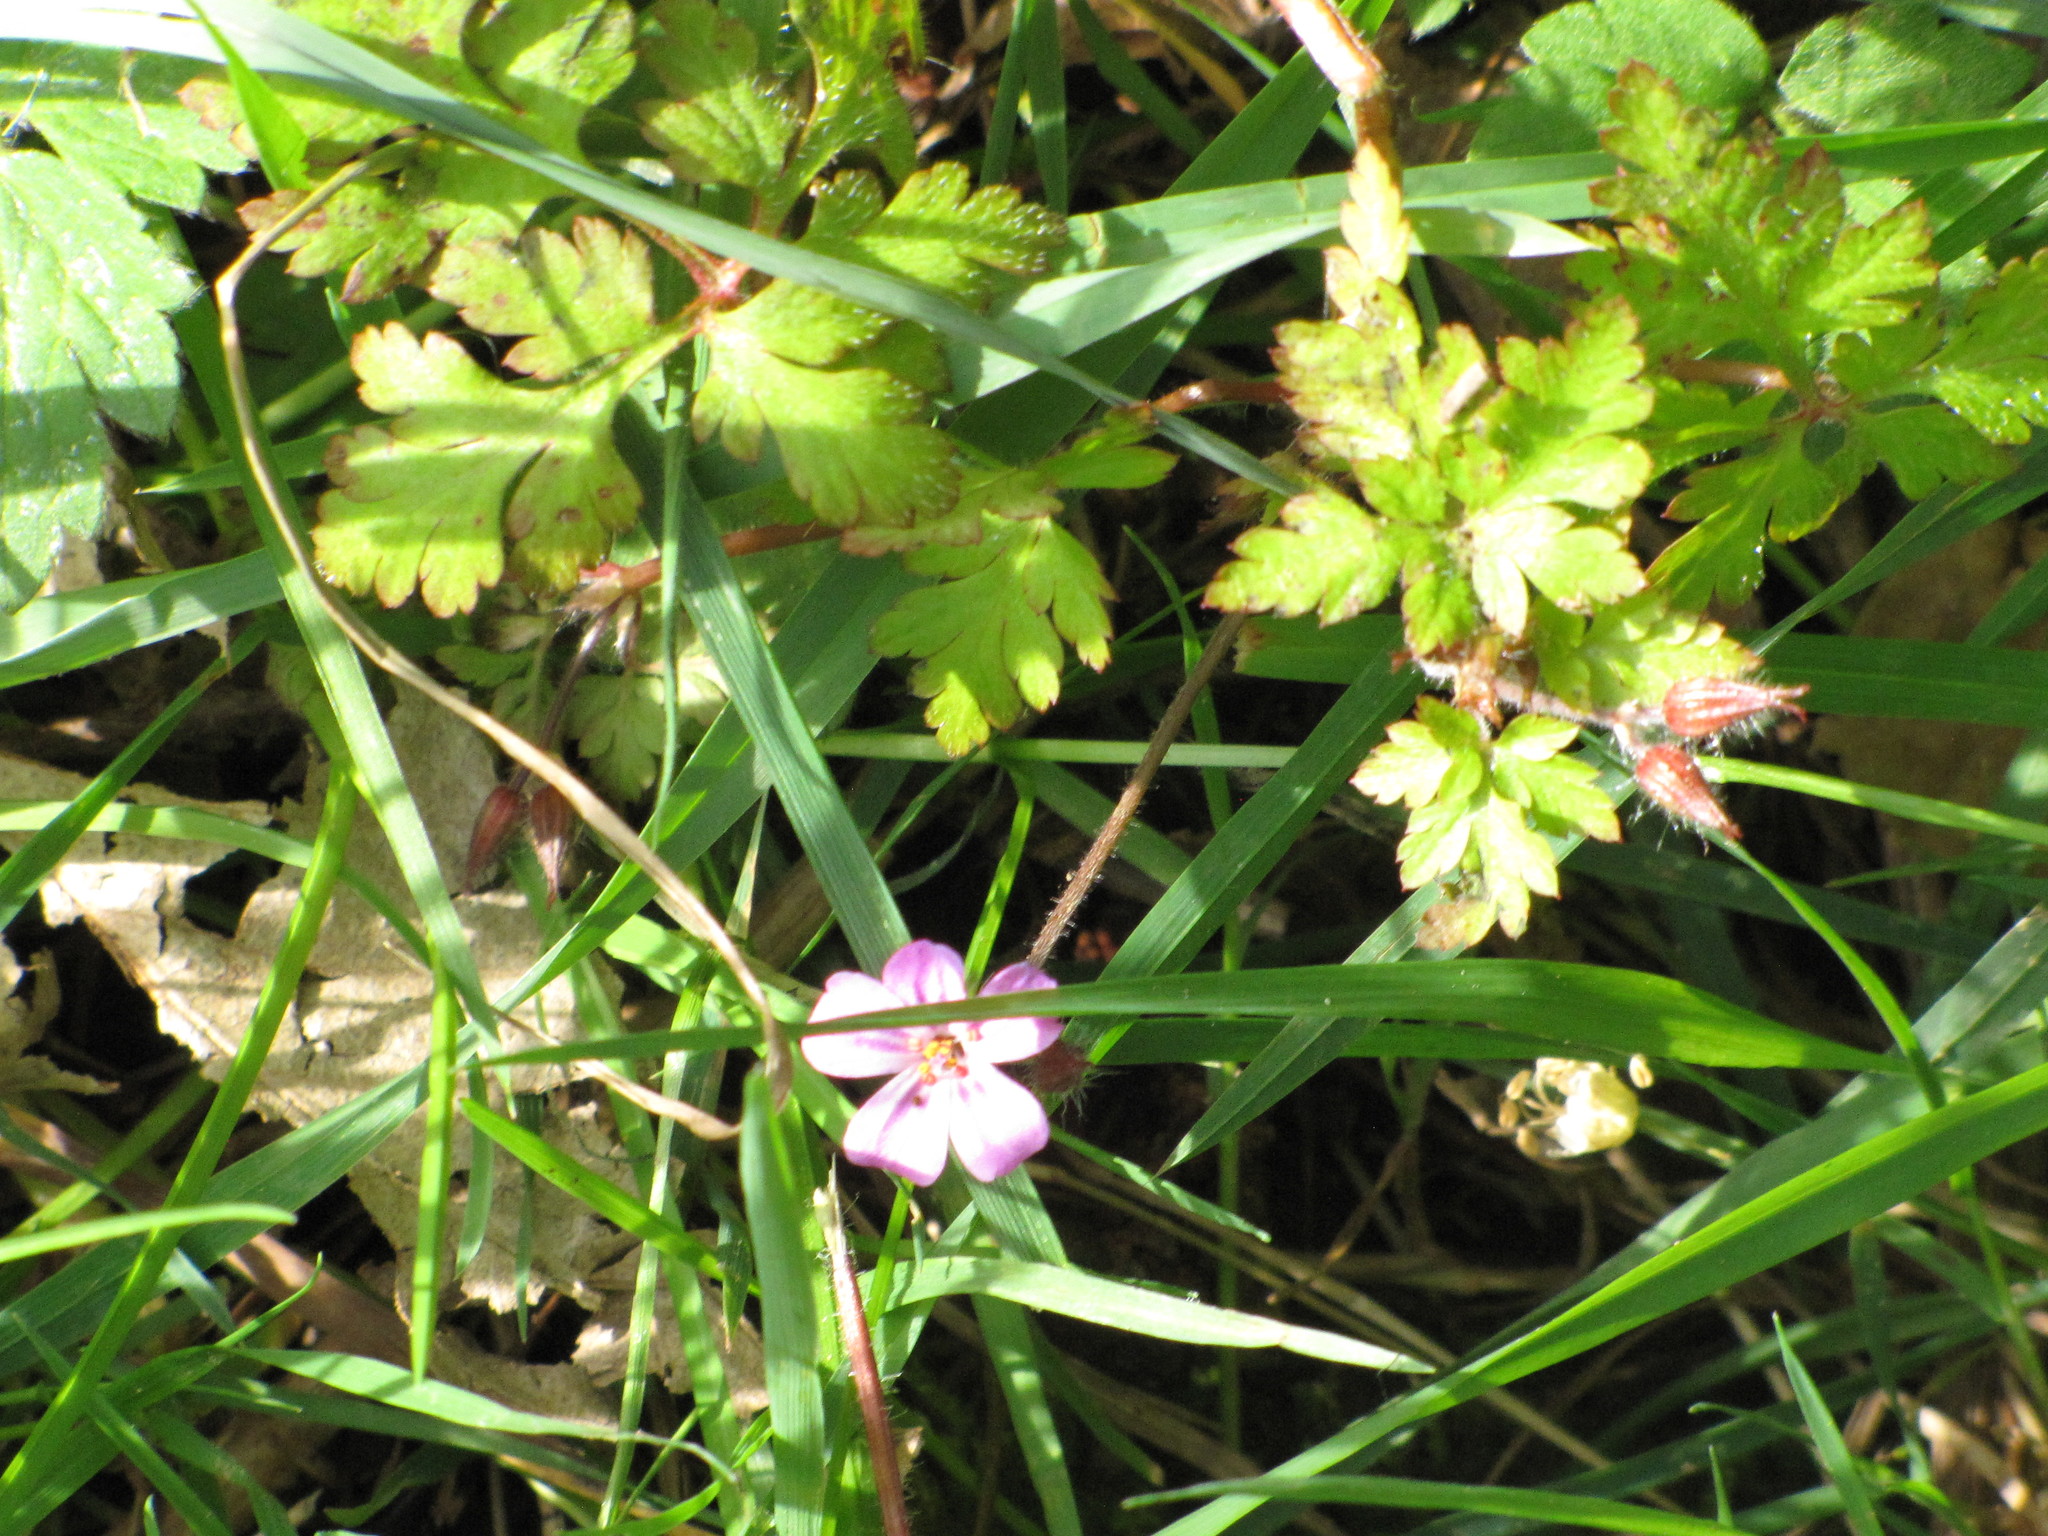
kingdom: Plantae
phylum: Tracheophyta
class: Magnoliopsida
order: Geraniales
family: Geraniaceae
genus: Geranium
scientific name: Geranium robertianum
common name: Herb-robert
